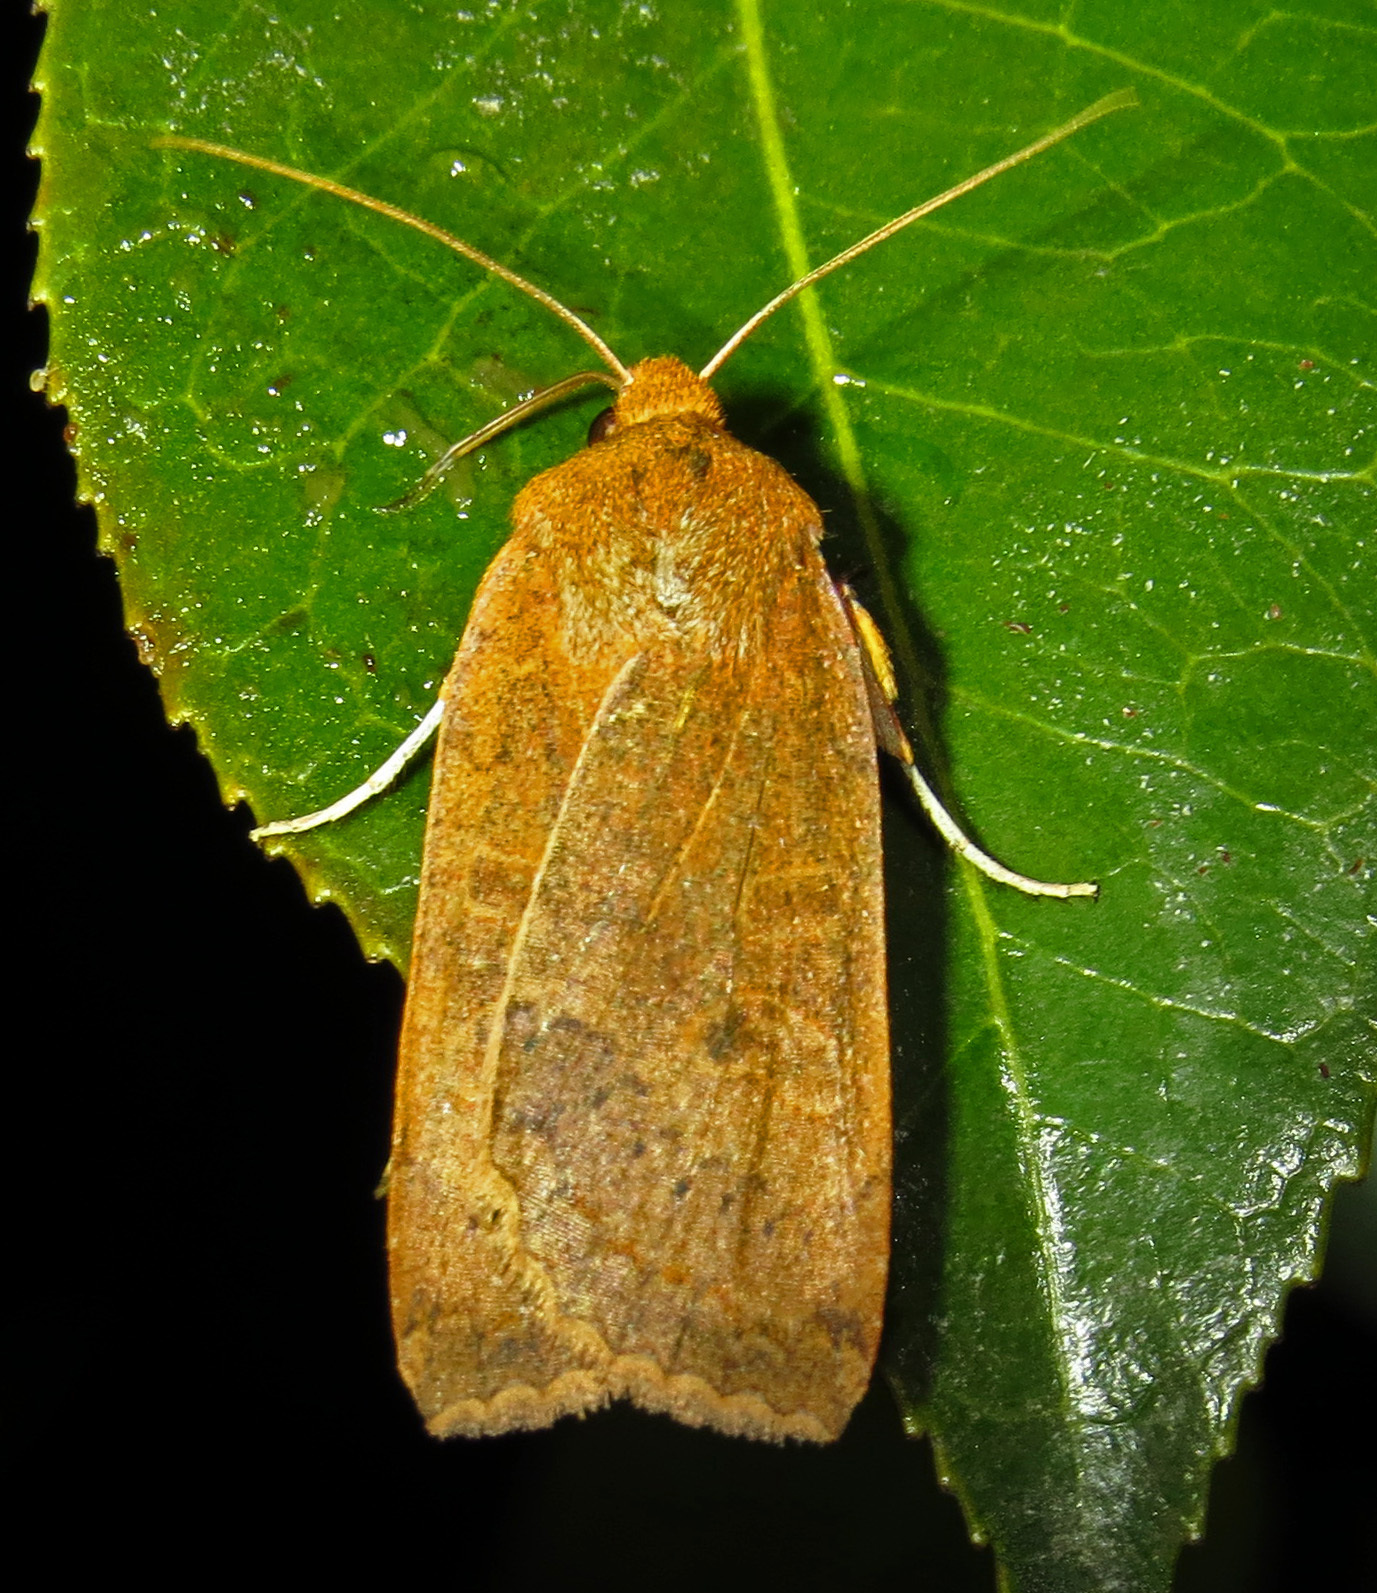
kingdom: Animalia
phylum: Arthropoda
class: Insecta
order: Lepidoptera
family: Noctuidae
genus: Metaxaglaea
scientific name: Metaxaglaea viatica
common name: Roadside sallow
